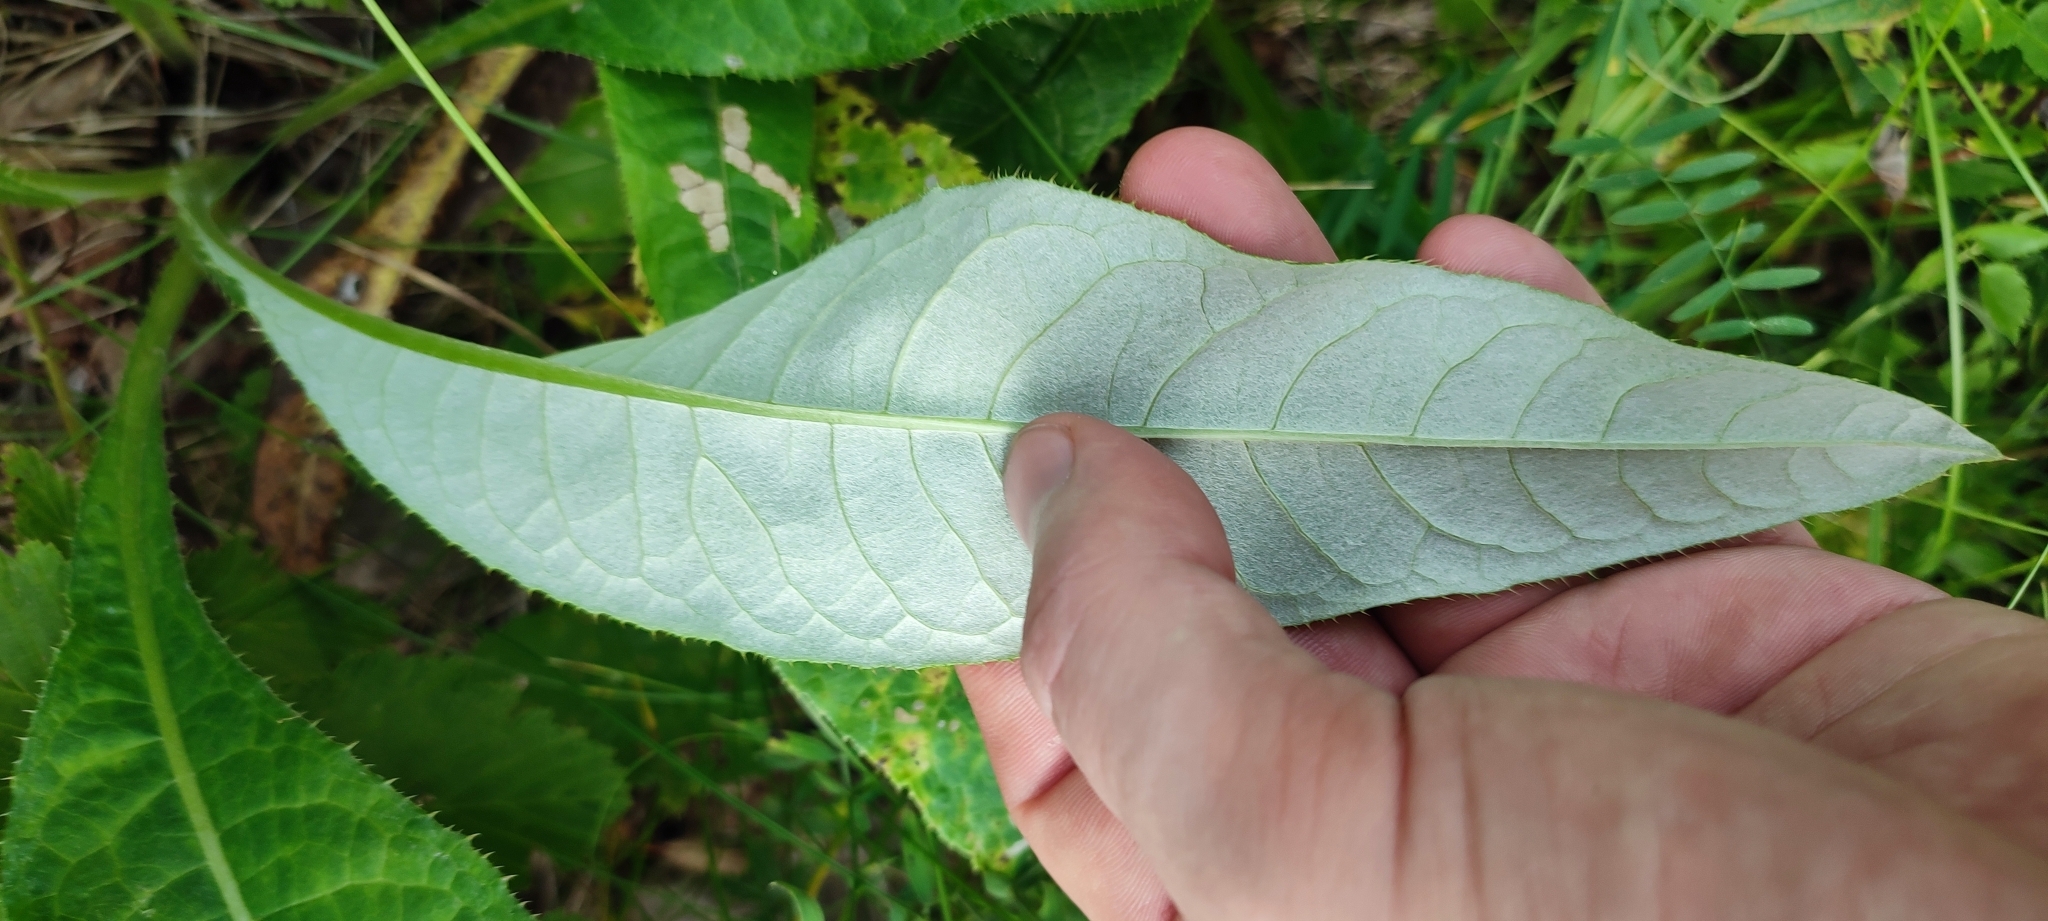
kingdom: Plantae
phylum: Tracheophyta
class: Magnoliopsida
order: Asterales
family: Asteraceae
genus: Cirsium
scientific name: Cirsium heterophyllum
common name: Melancholy thistle
